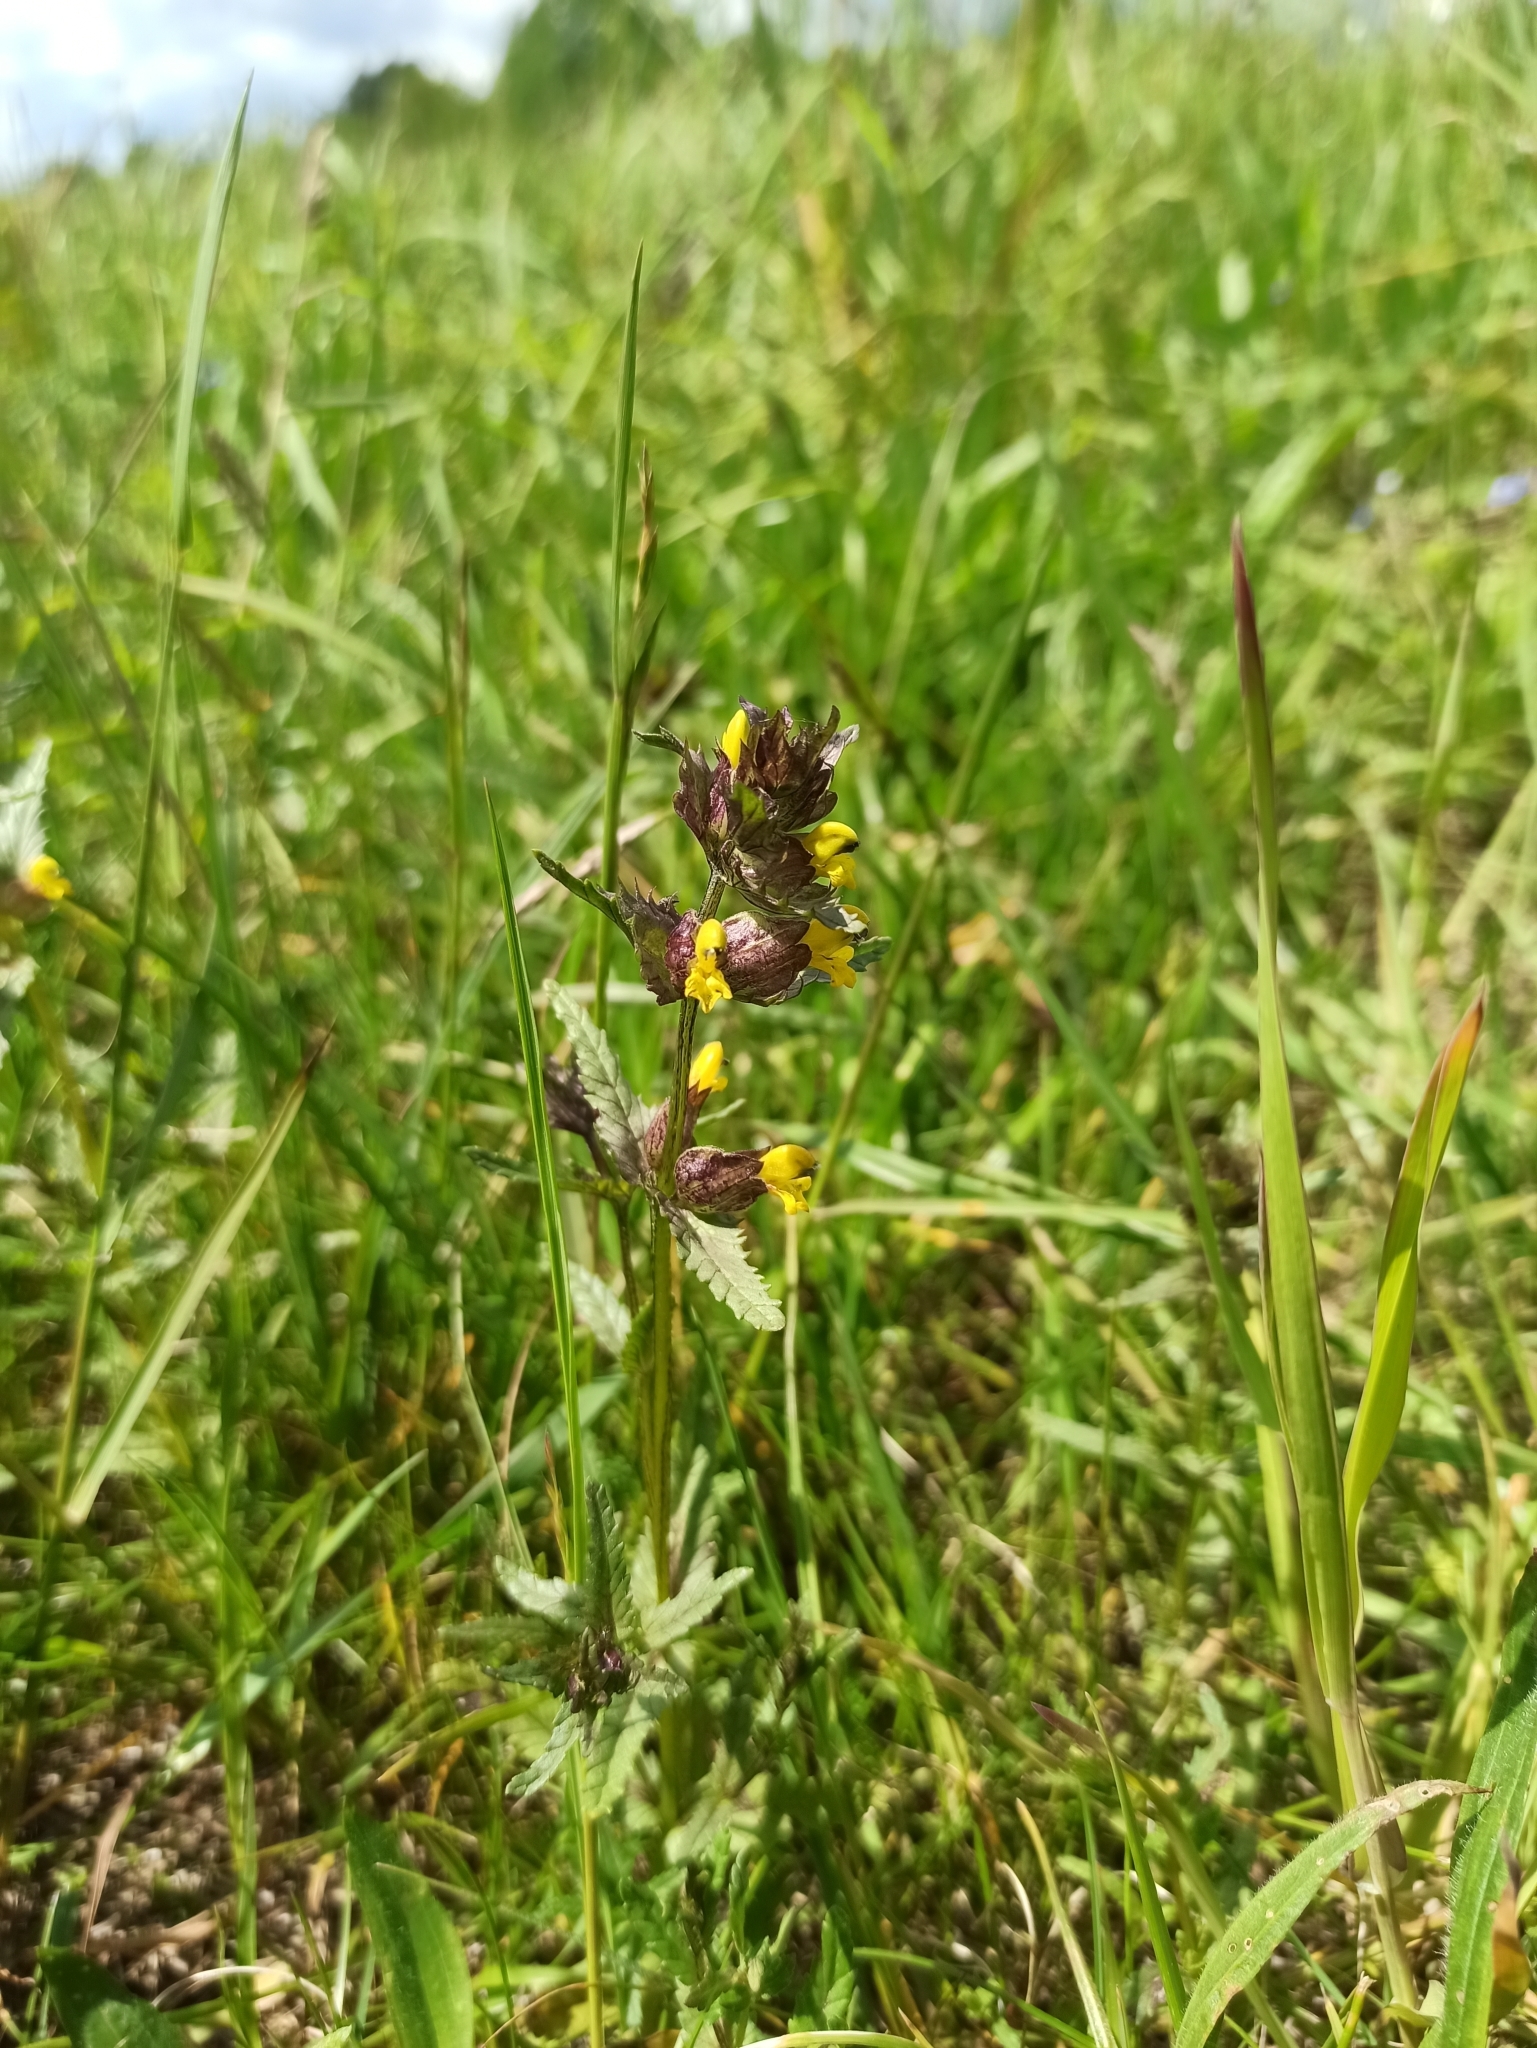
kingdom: Plantae
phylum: Tracheophyta
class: Magnoliopsida
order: Lamiales
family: Orobanchaceae
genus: Rhinanthus
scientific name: Rhinanthus minor
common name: Yellow-rattle
